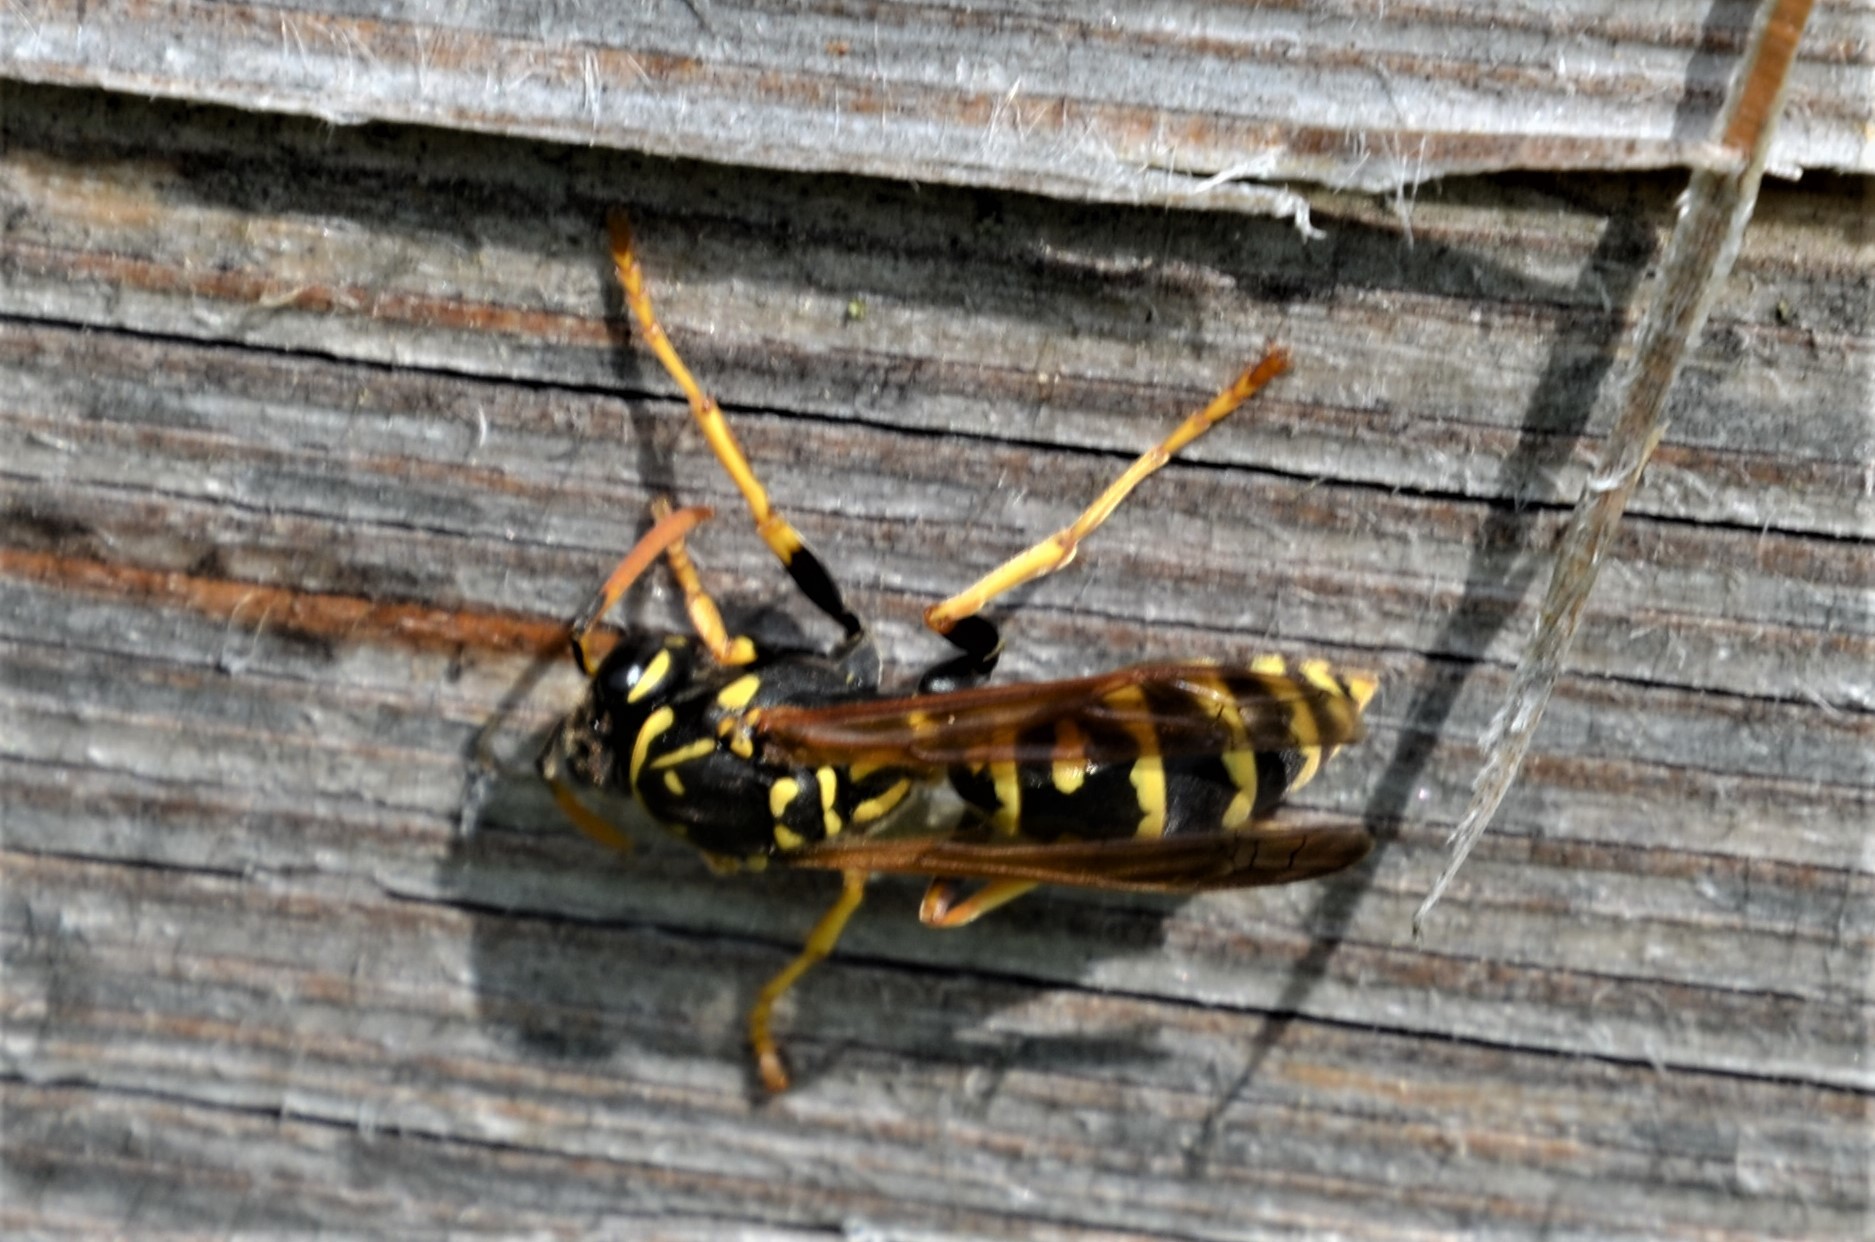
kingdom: Animalia
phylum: Arthropoda
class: Insecta
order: Hymenoptera
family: Eumenidae
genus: Polistes
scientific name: Polistes dominula
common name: Paper wasp
